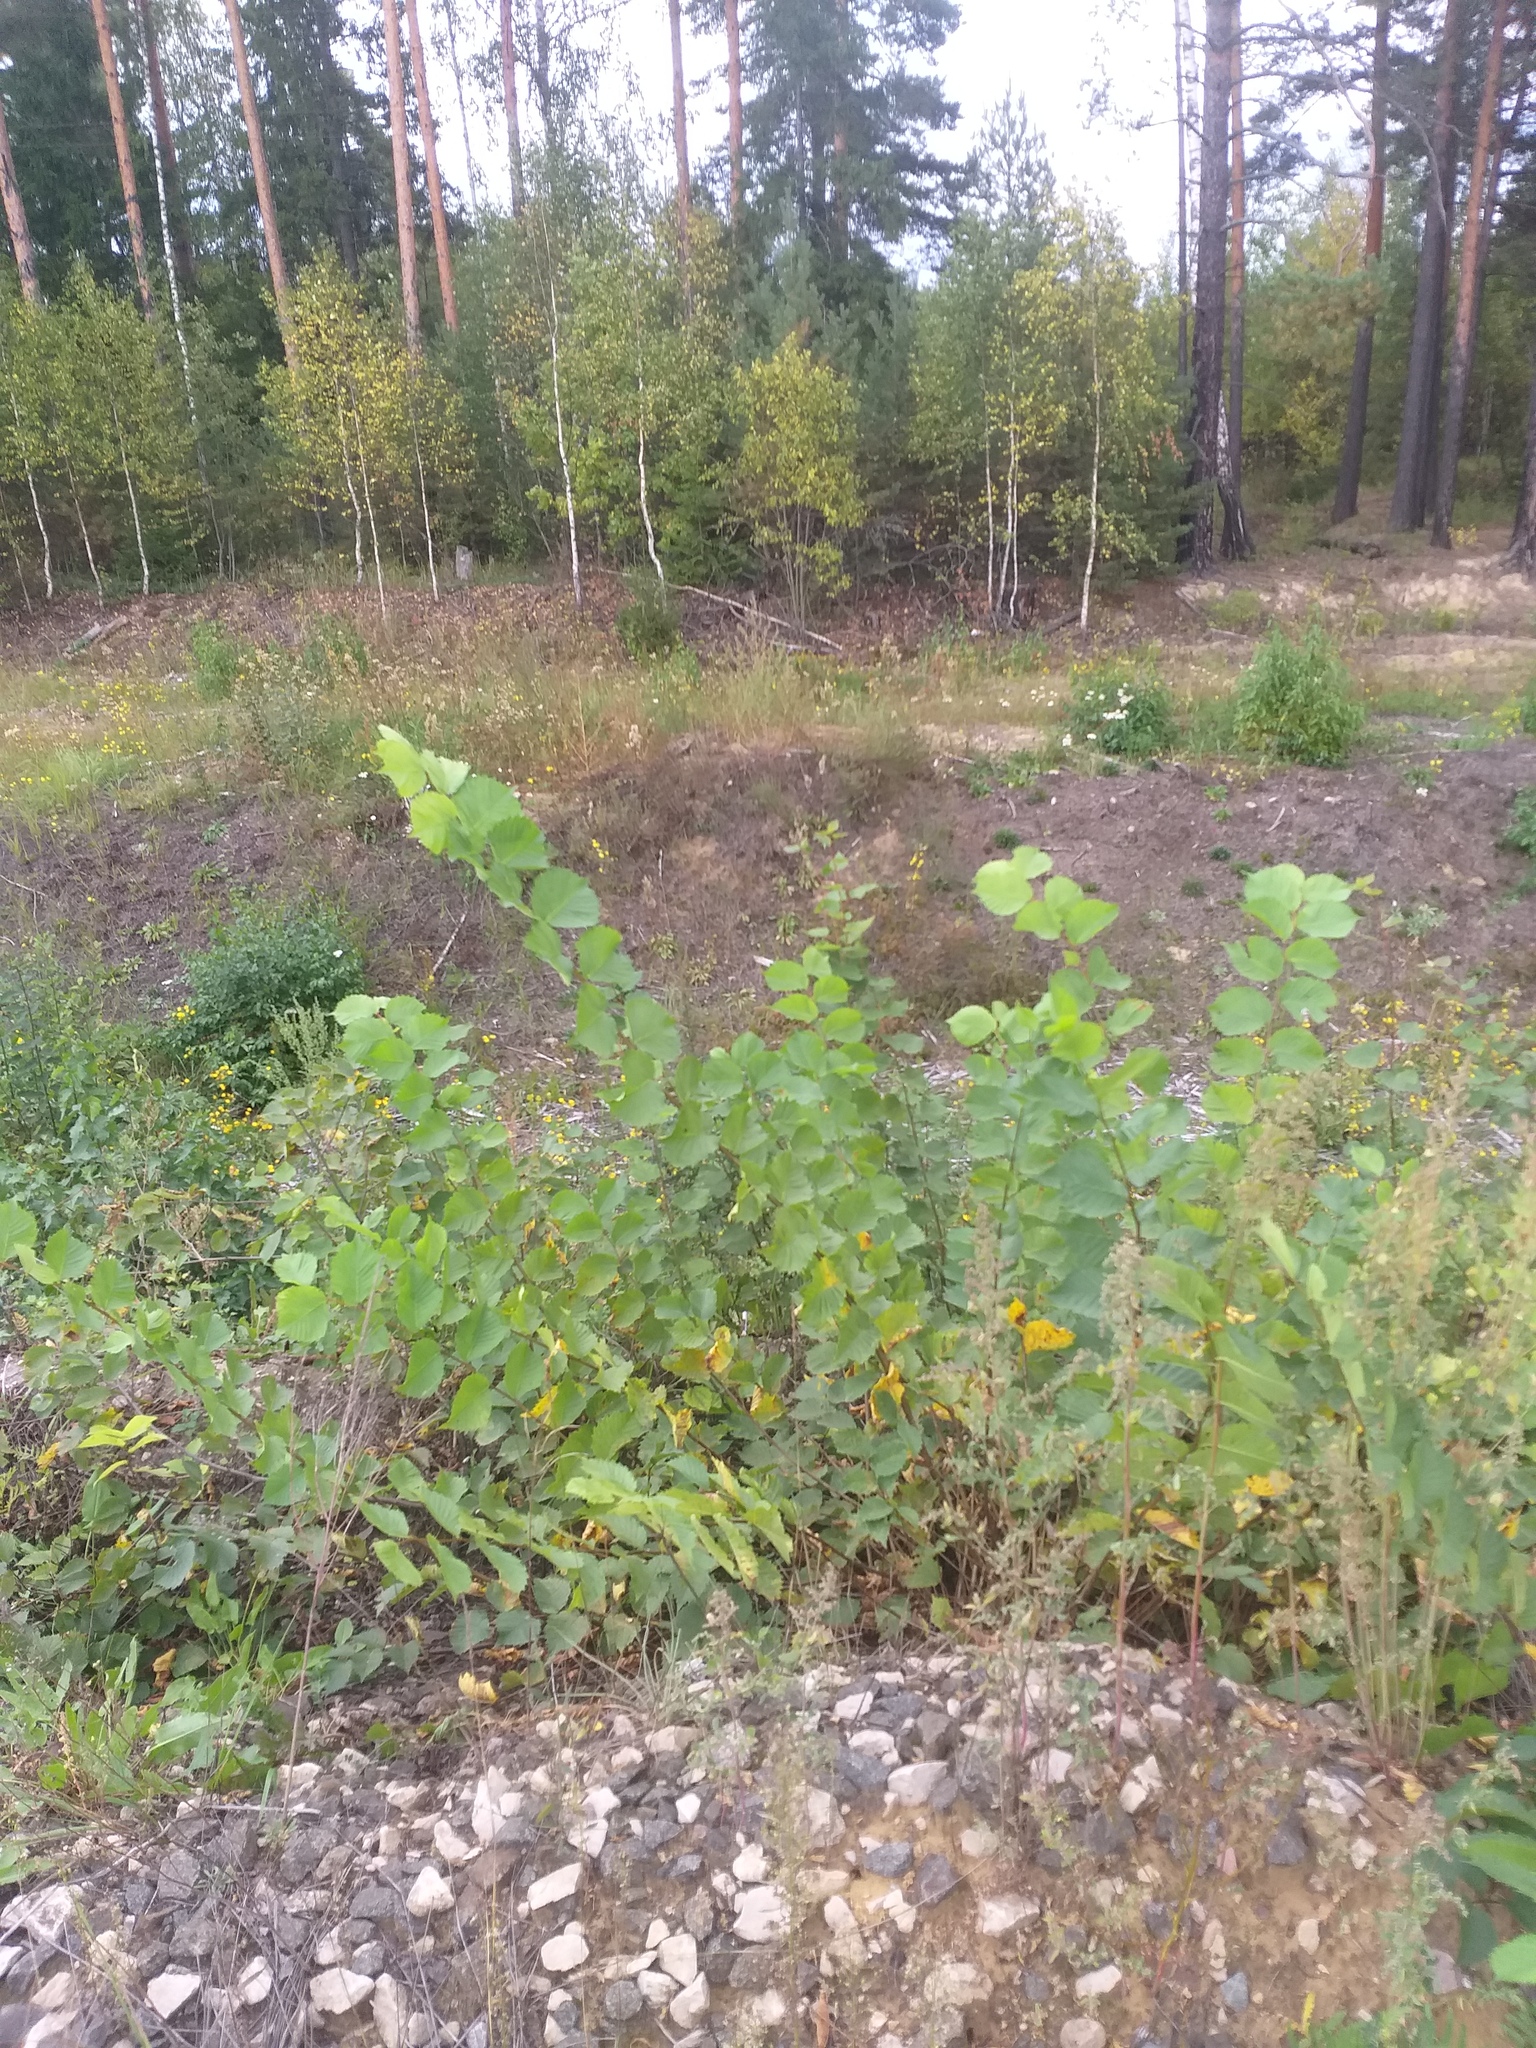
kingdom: Plantae
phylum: Tracheophyta
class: Magnoliopsida
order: Rosales
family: Ulmaceae
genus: Ulmus
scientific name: Ulmus laevis
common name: European white-elm
